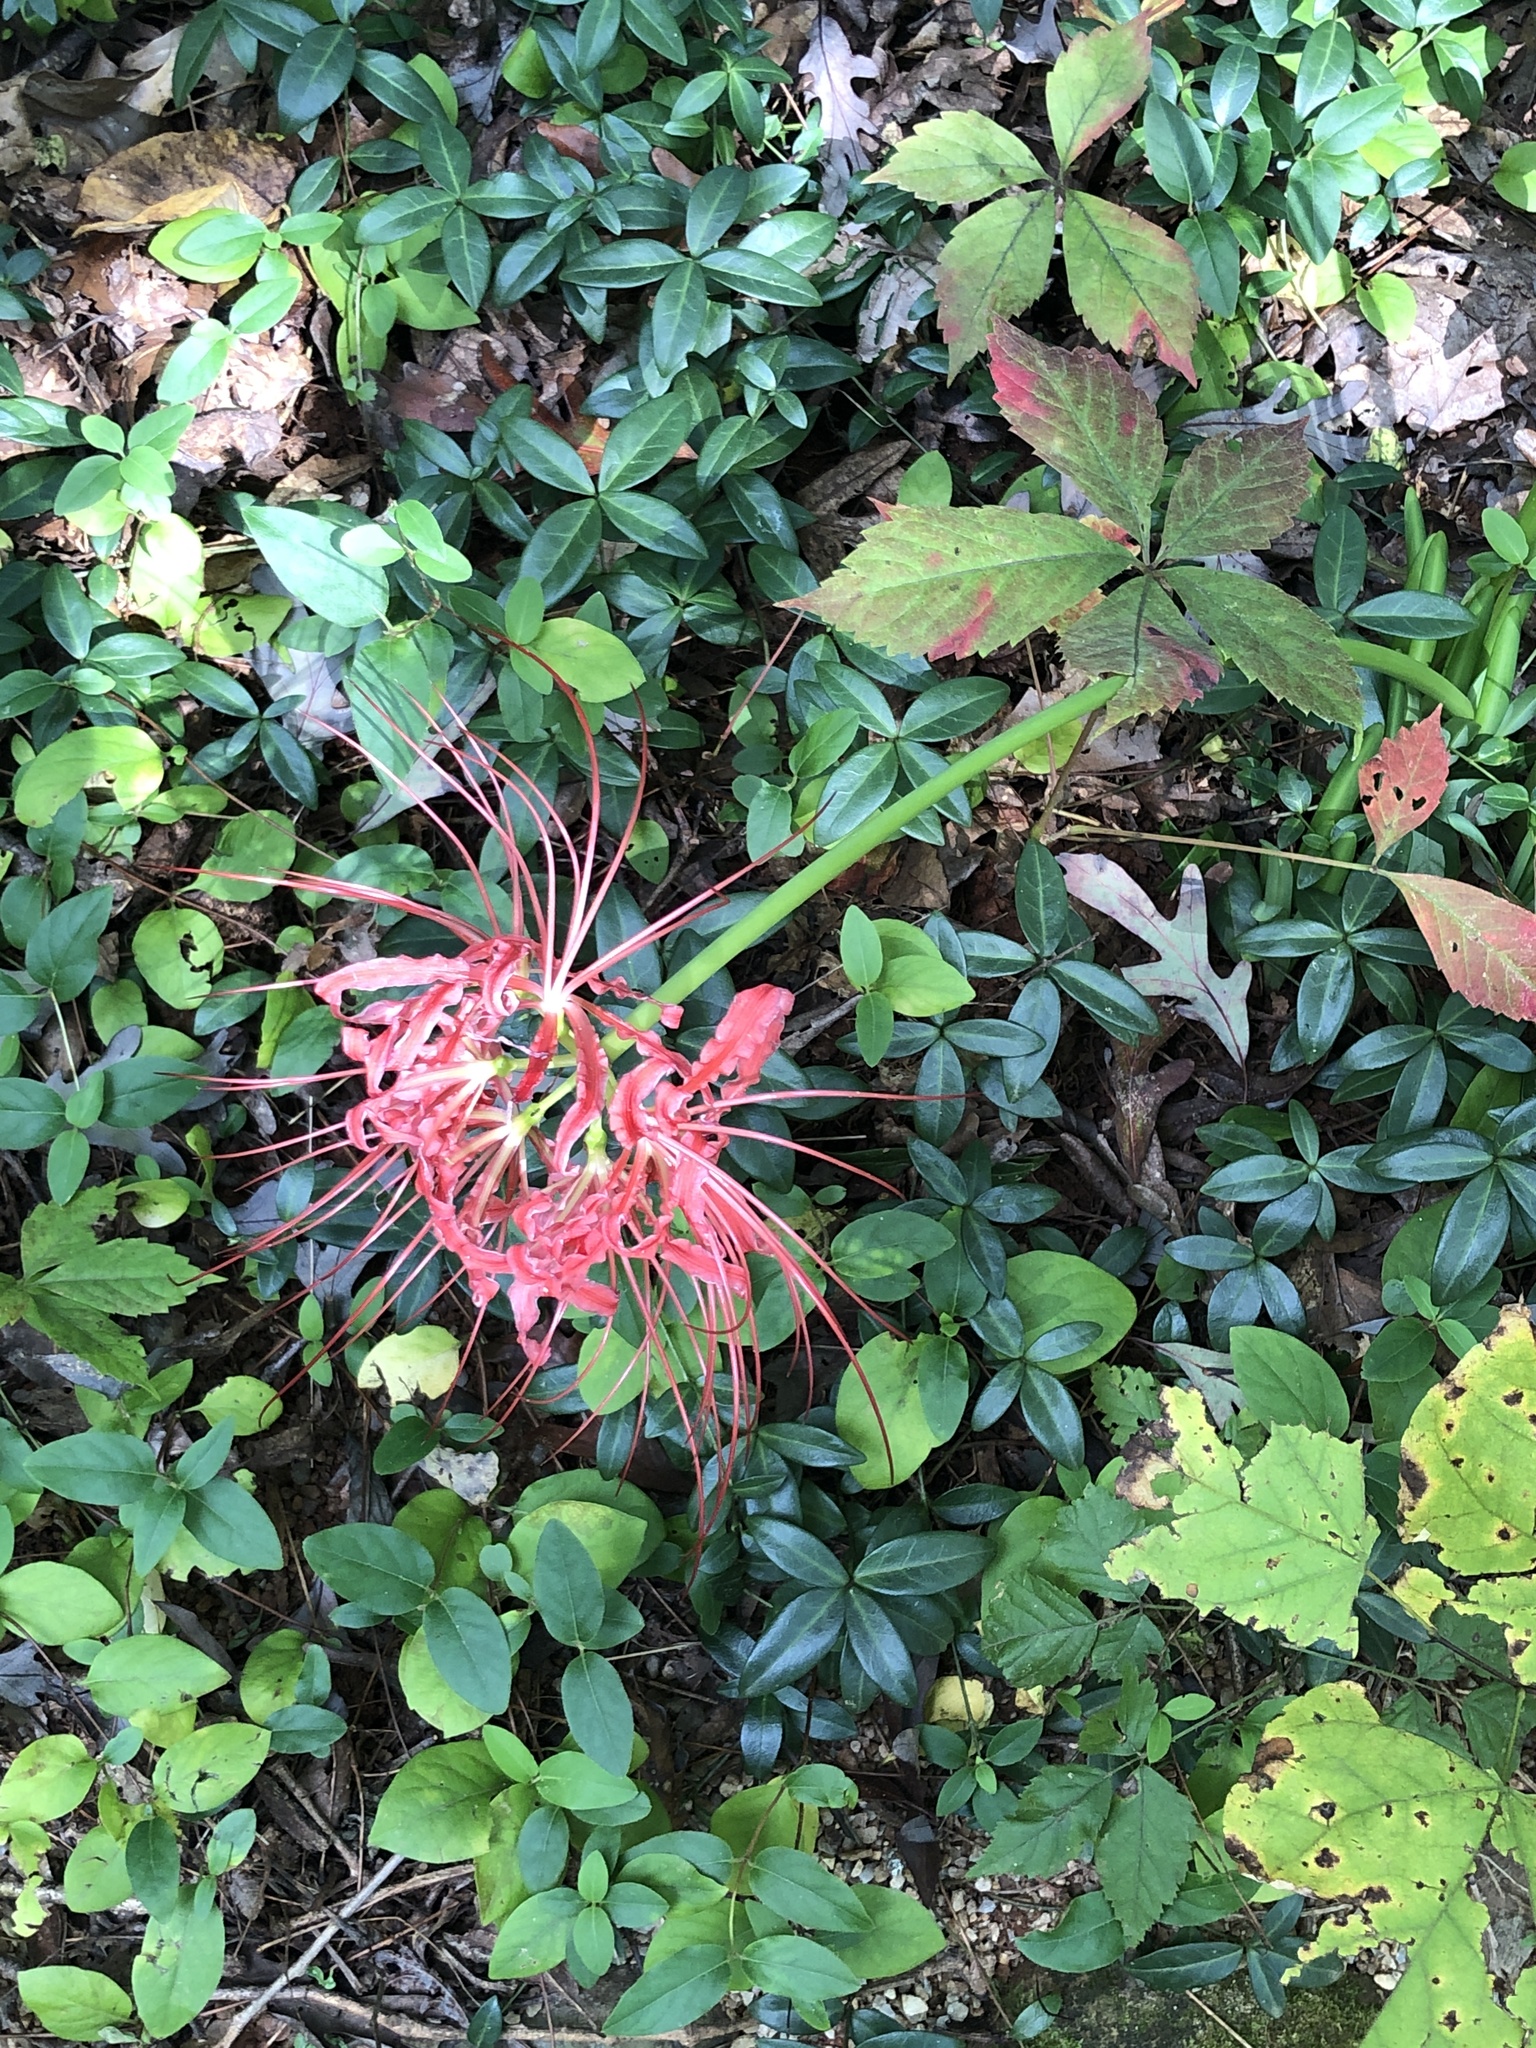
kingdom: Plantae
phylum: Tracheophyta
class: Liliopsida
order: Asparagales
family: Amaryllidaceae
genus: Lycoris
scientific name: Lycoris radiata
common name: Red spider lily
